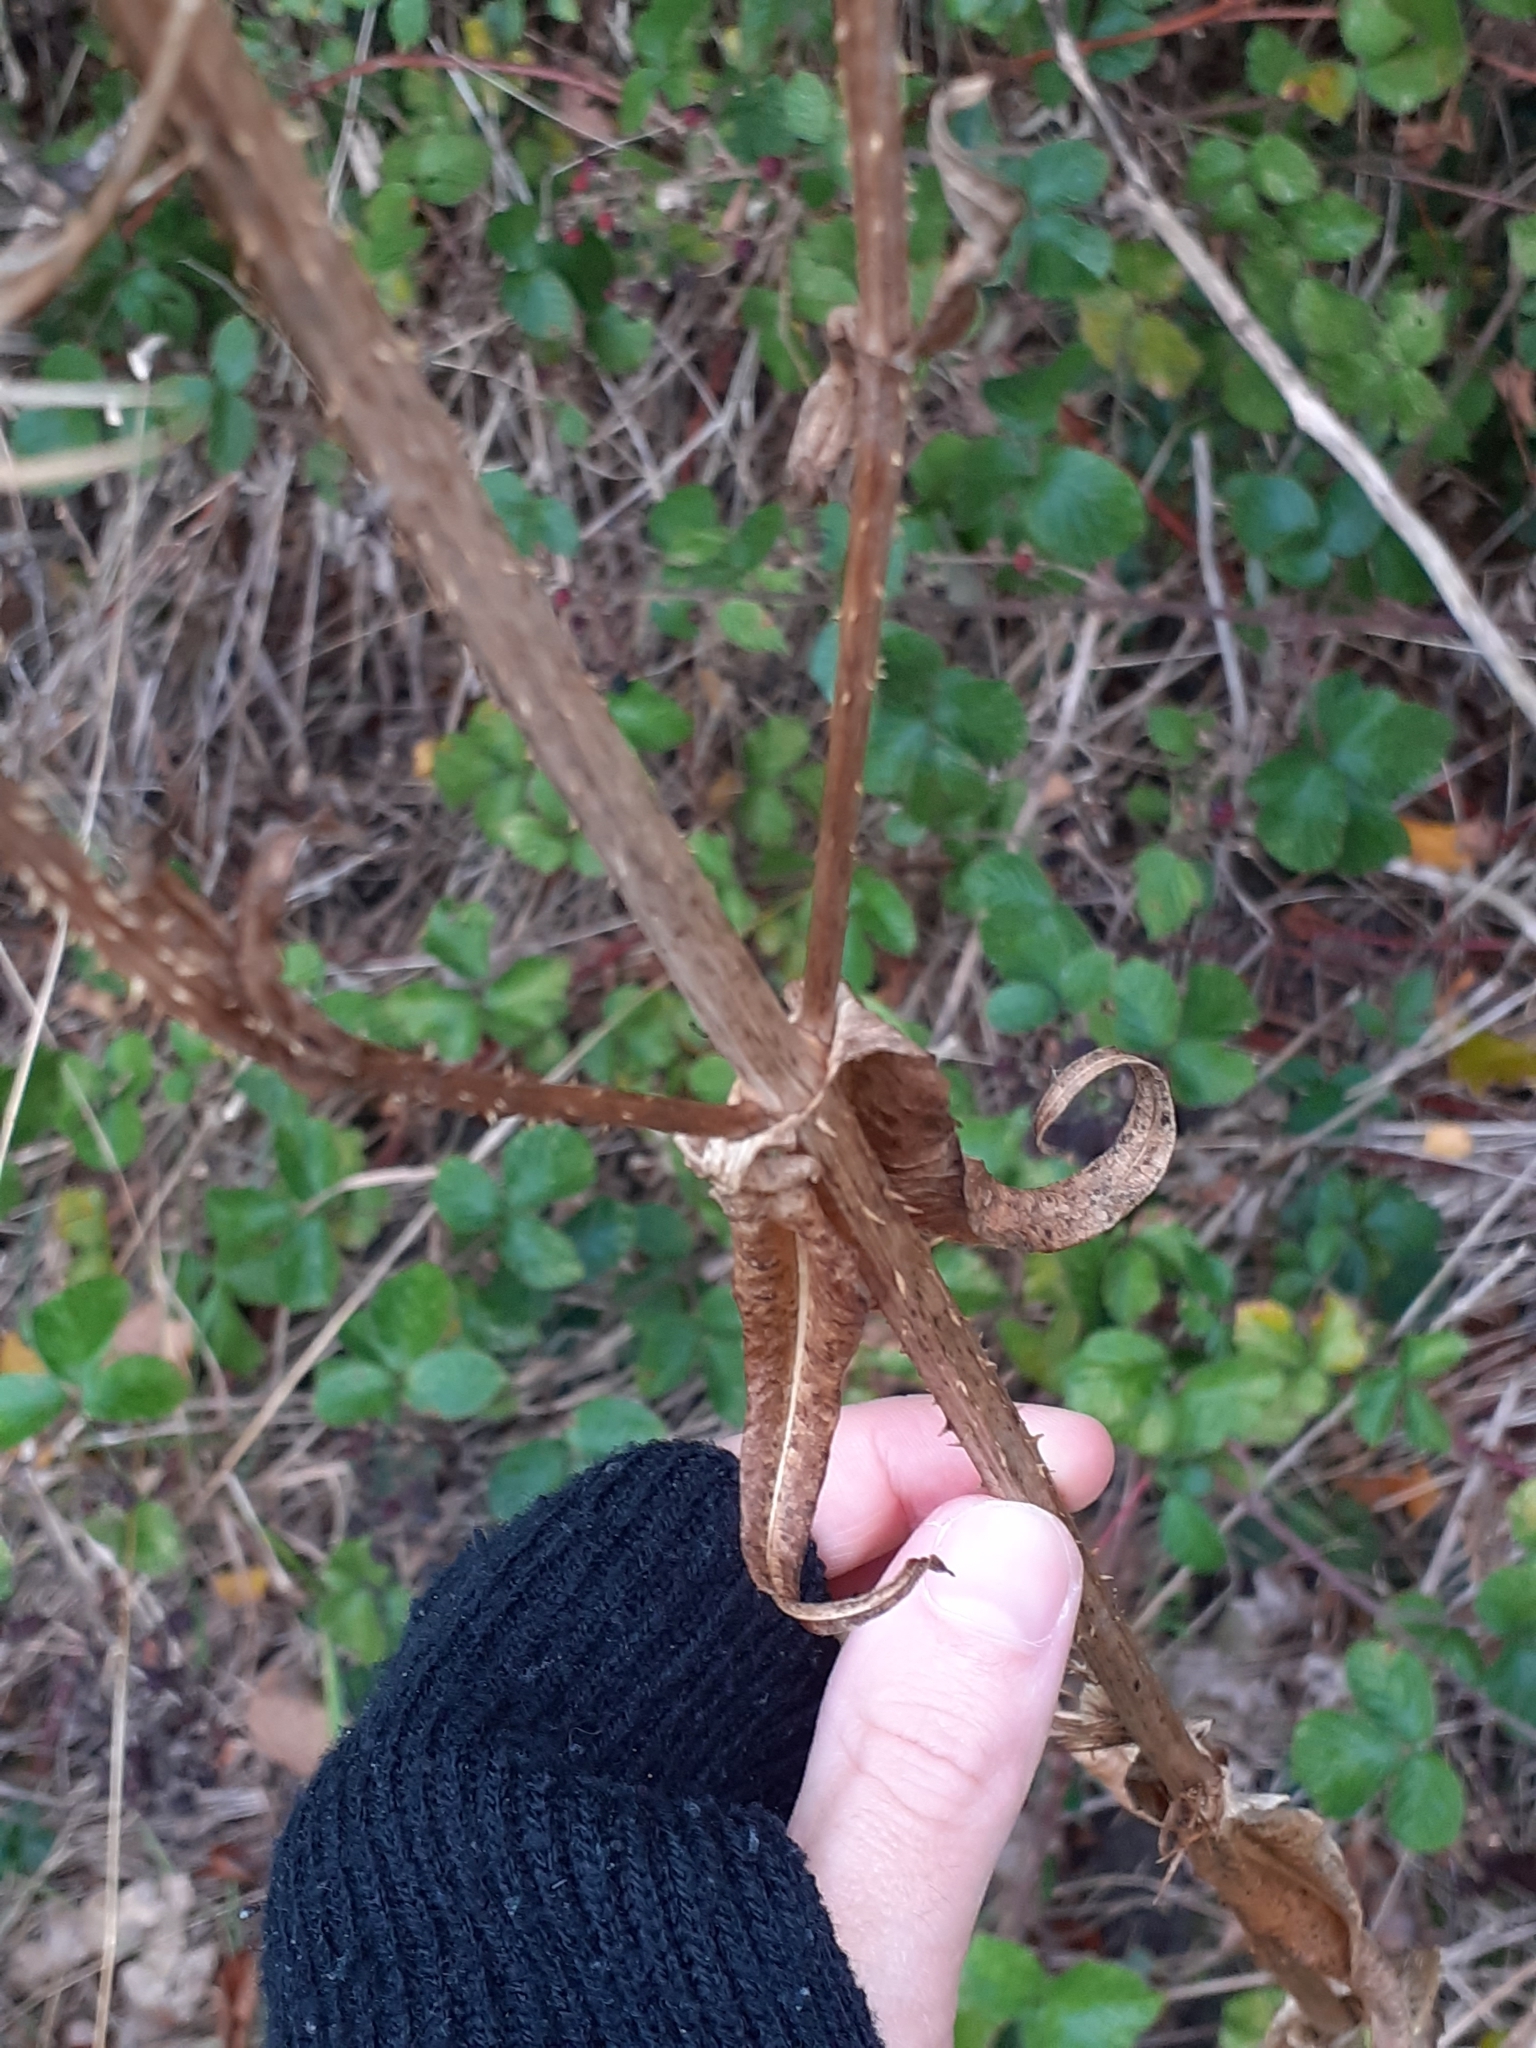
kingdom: Plantae
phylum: Tracheophyta
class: Magnoliopsida
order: Dipsacales
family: Caprifoliaceae
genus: Dipsacus
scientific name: Dipsacus fullonum
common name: Teasel
